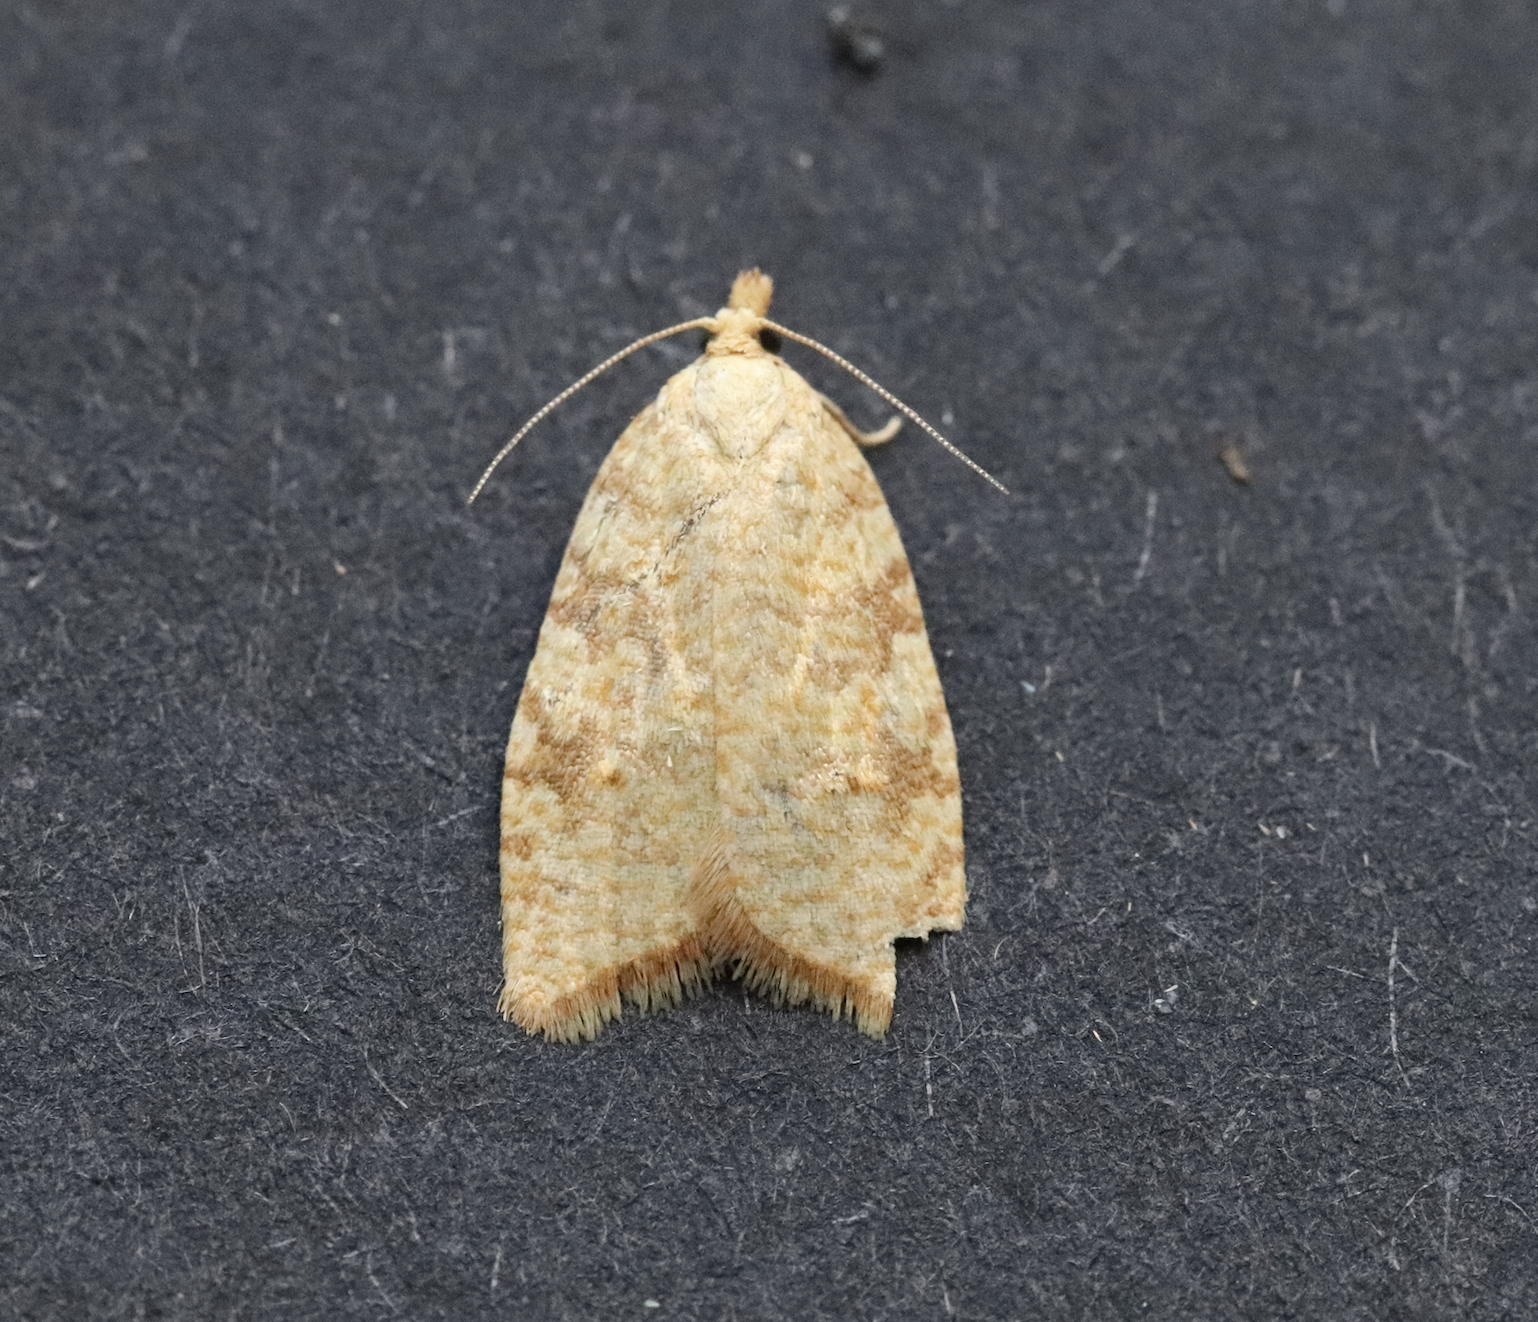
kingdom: Animalia
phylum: Arthropoda
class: Insecta
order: Lepidoptera
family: Tortricidae
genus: Aleimma
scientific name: Aleimma loeflingiana
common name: Yellow oak button
